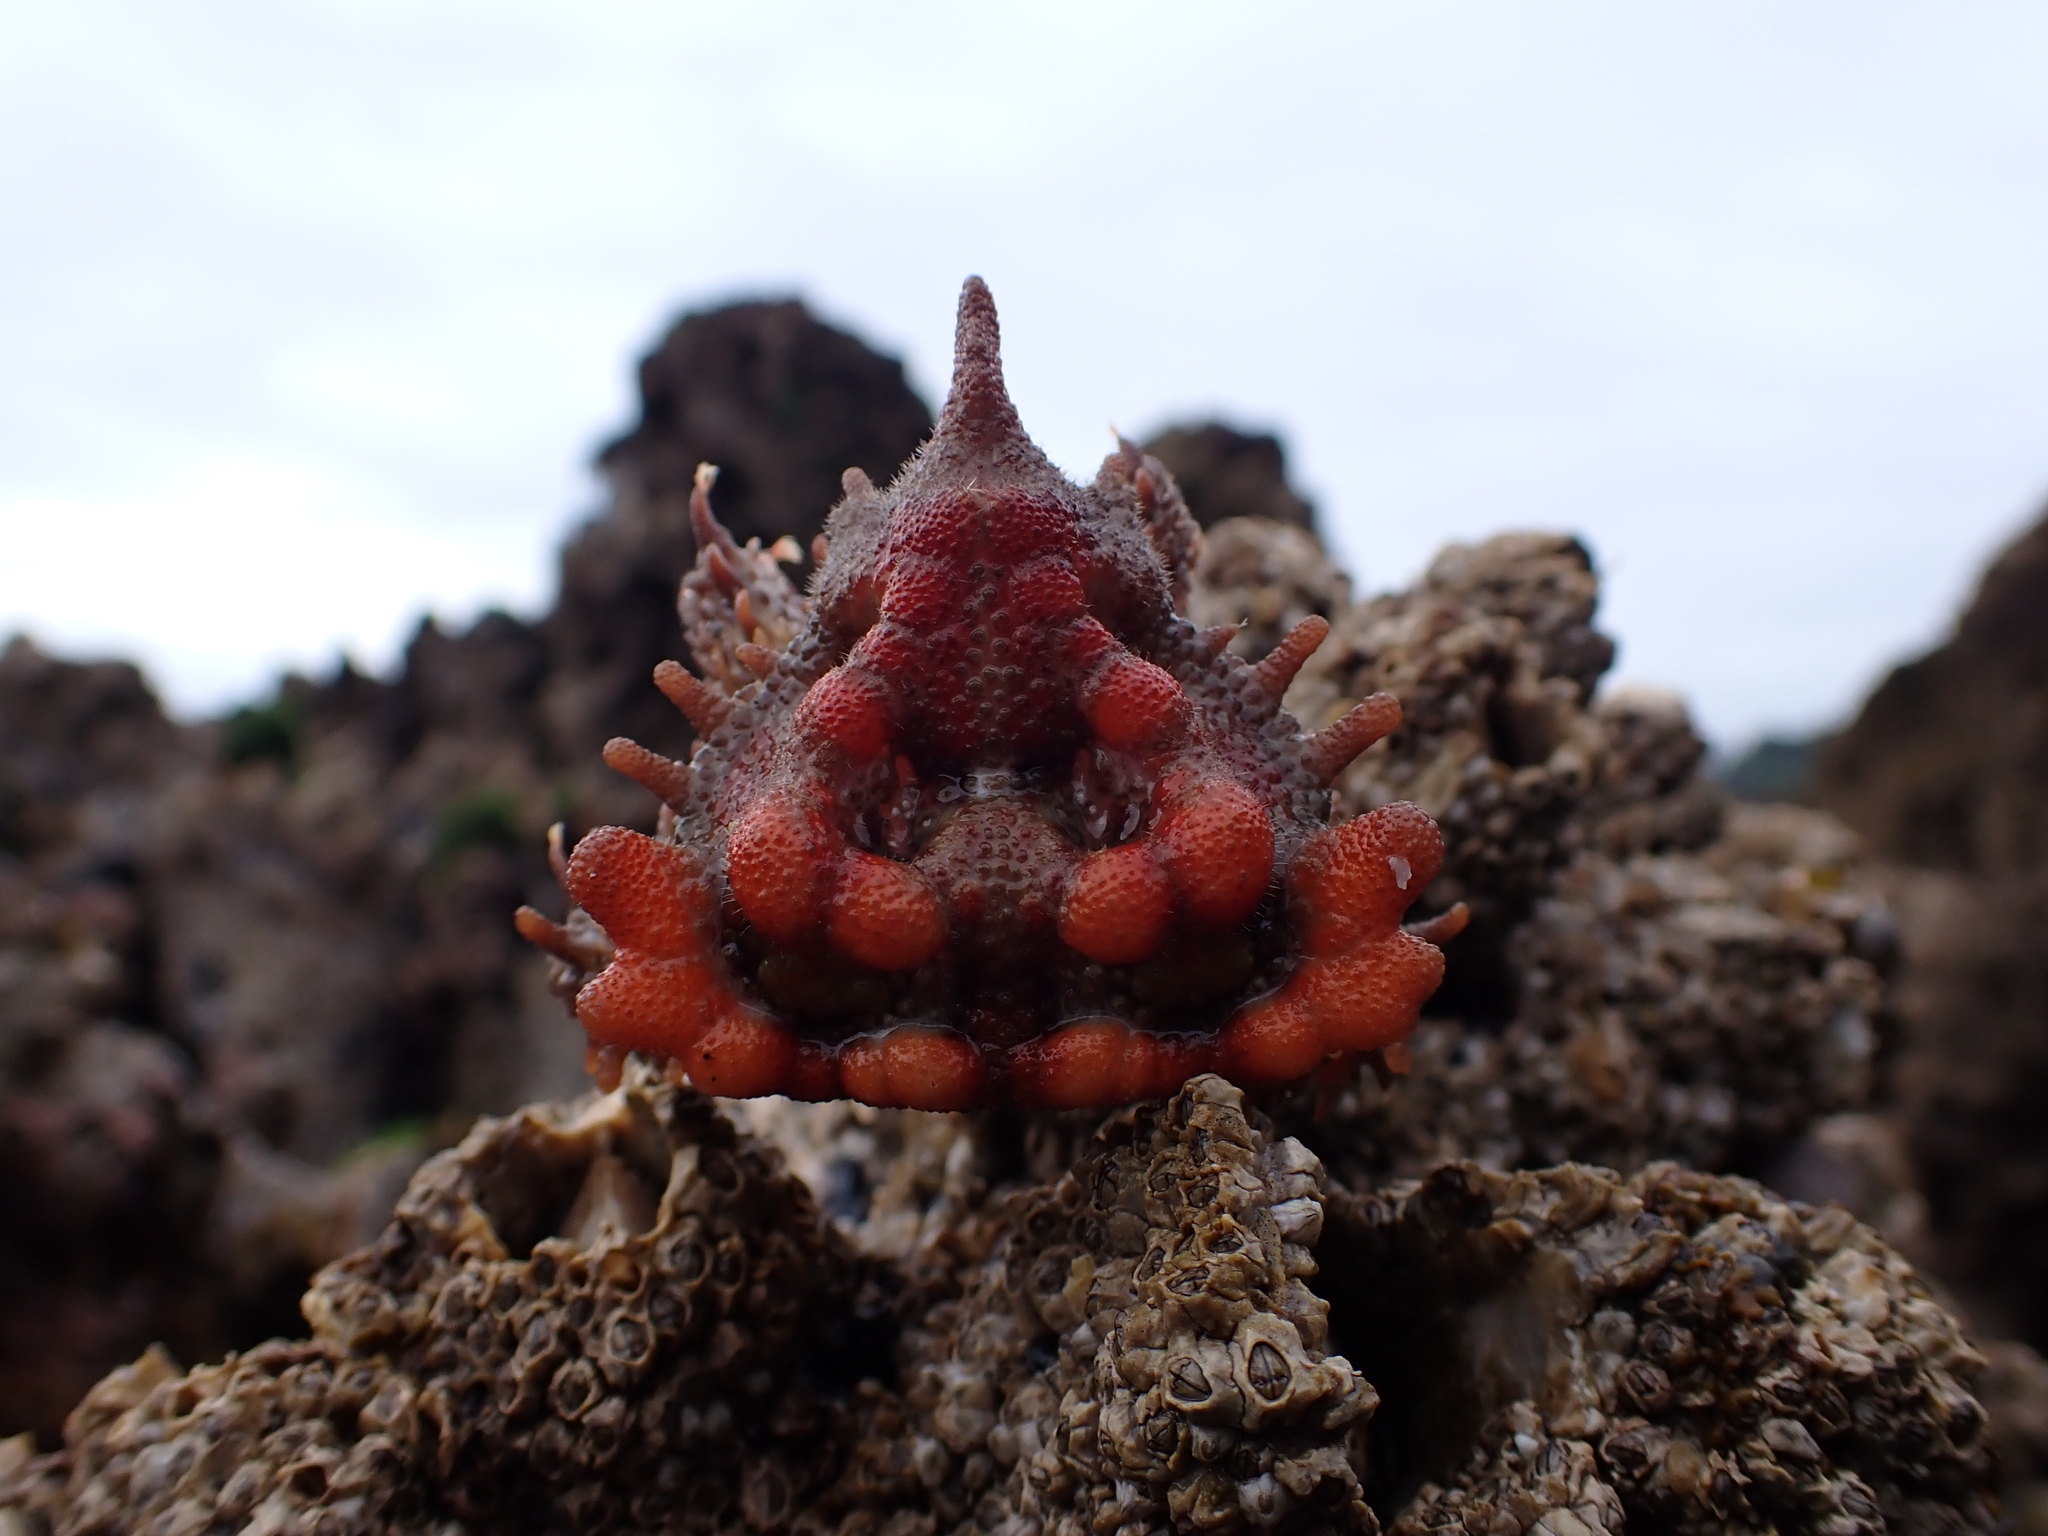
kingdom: Animalia
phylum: Arthropoda
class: Malacostraca
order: Decapoda
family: Lithodidae
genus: Phyllolithodes
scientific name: Phyllolithodes papillosus
